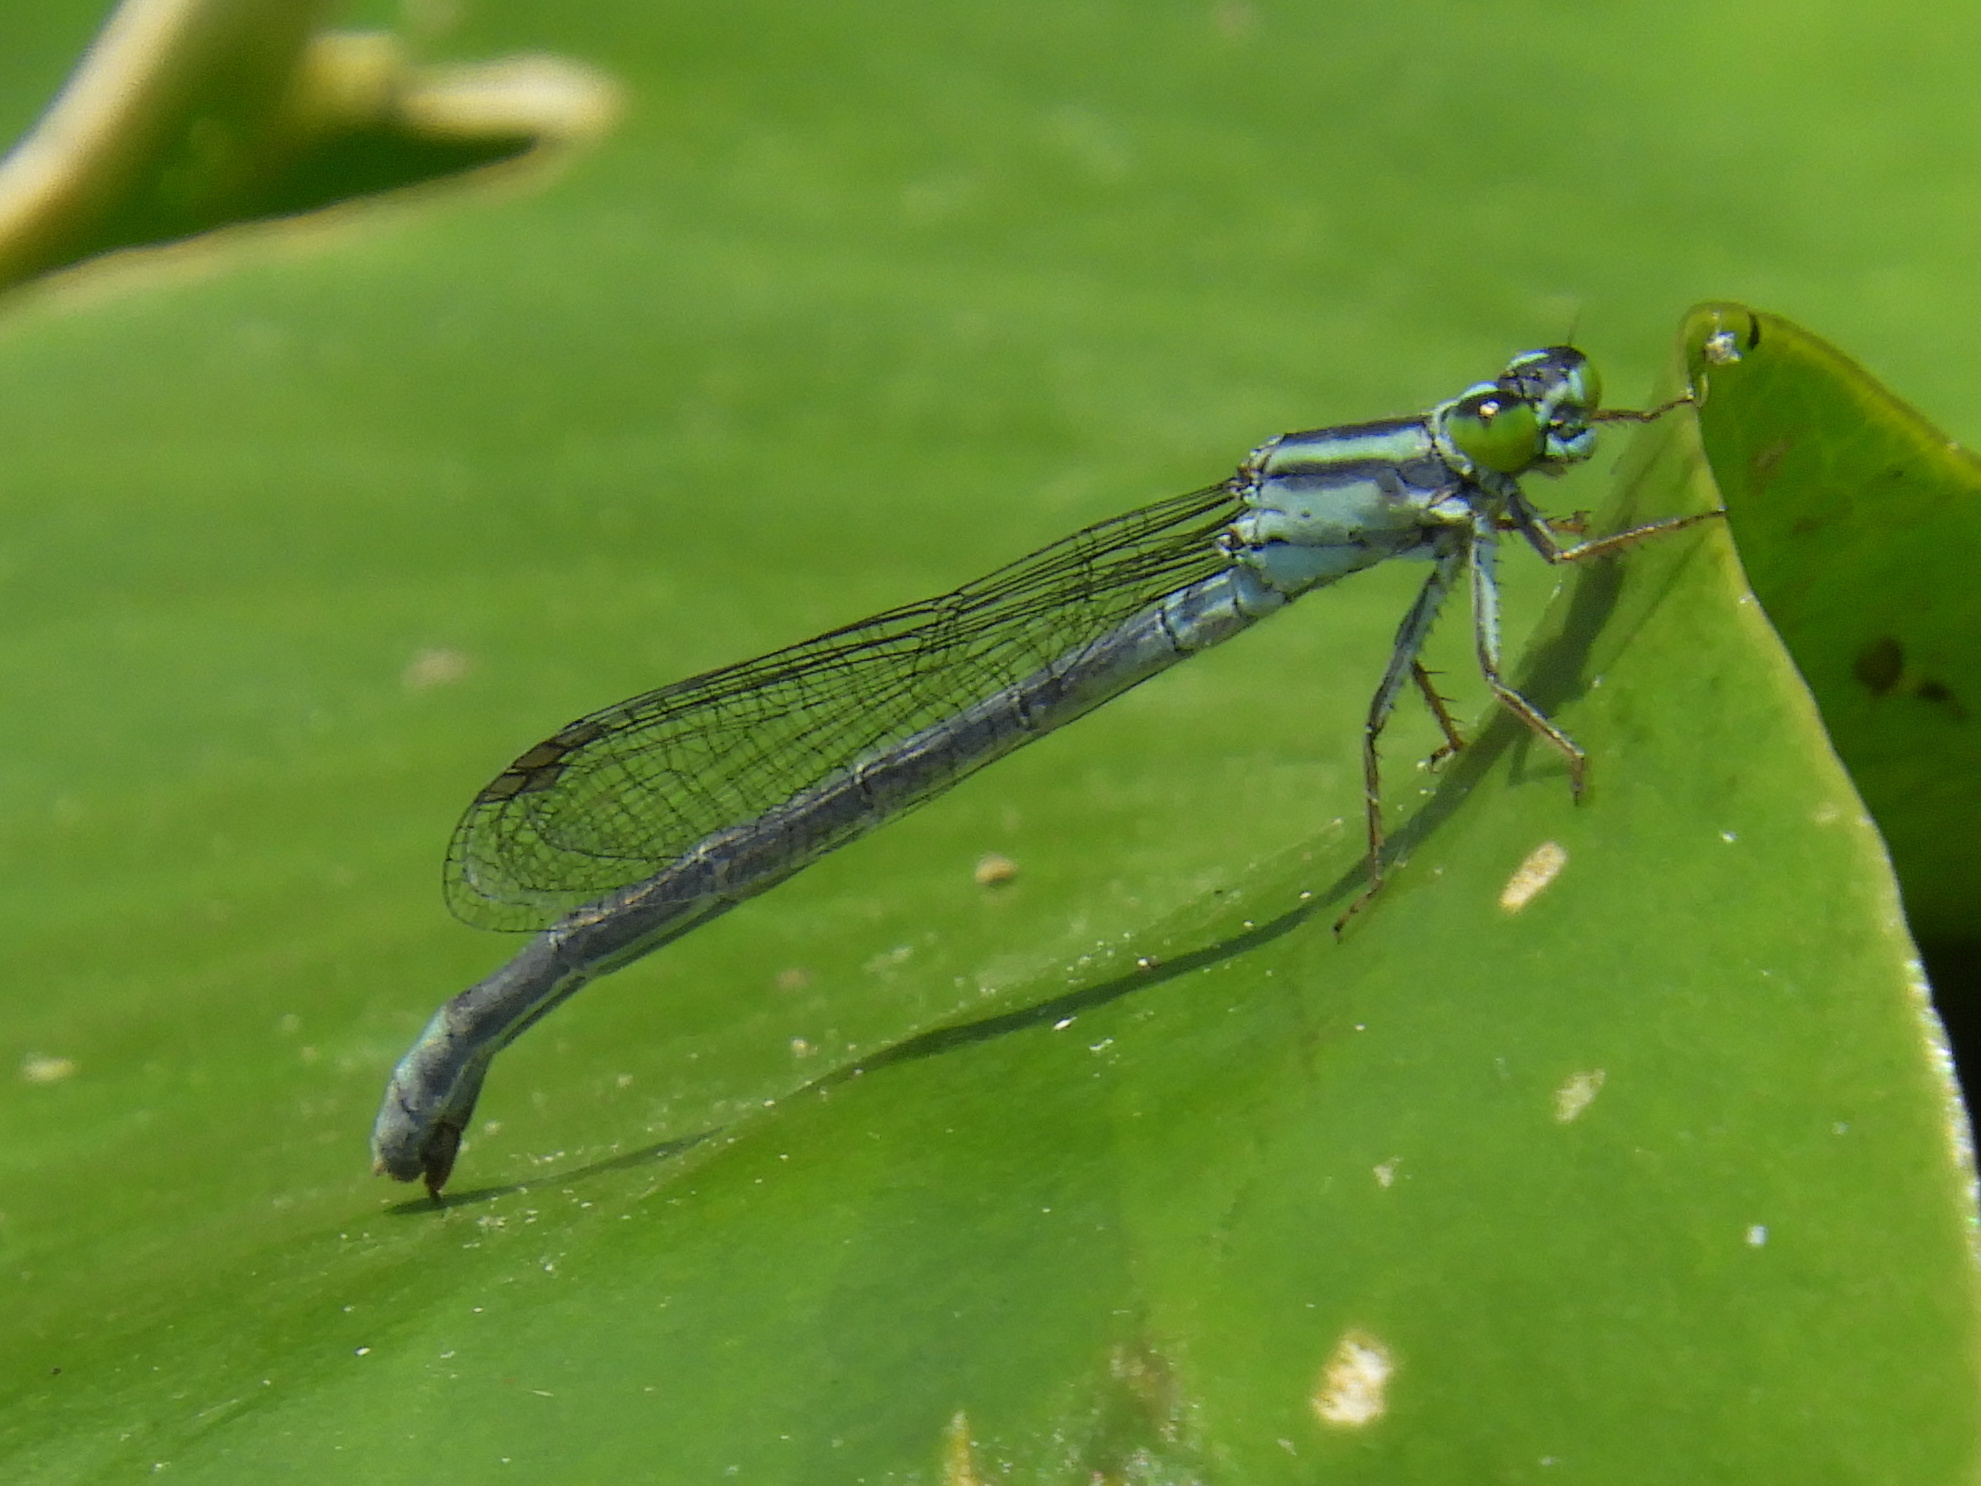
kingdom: Animalia
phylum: Arthropoda
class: Insecta
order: Odonata
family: Coenagrionidae
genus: Ischnura
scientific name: Ischnura kellicotti
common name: Lilypad forktail
